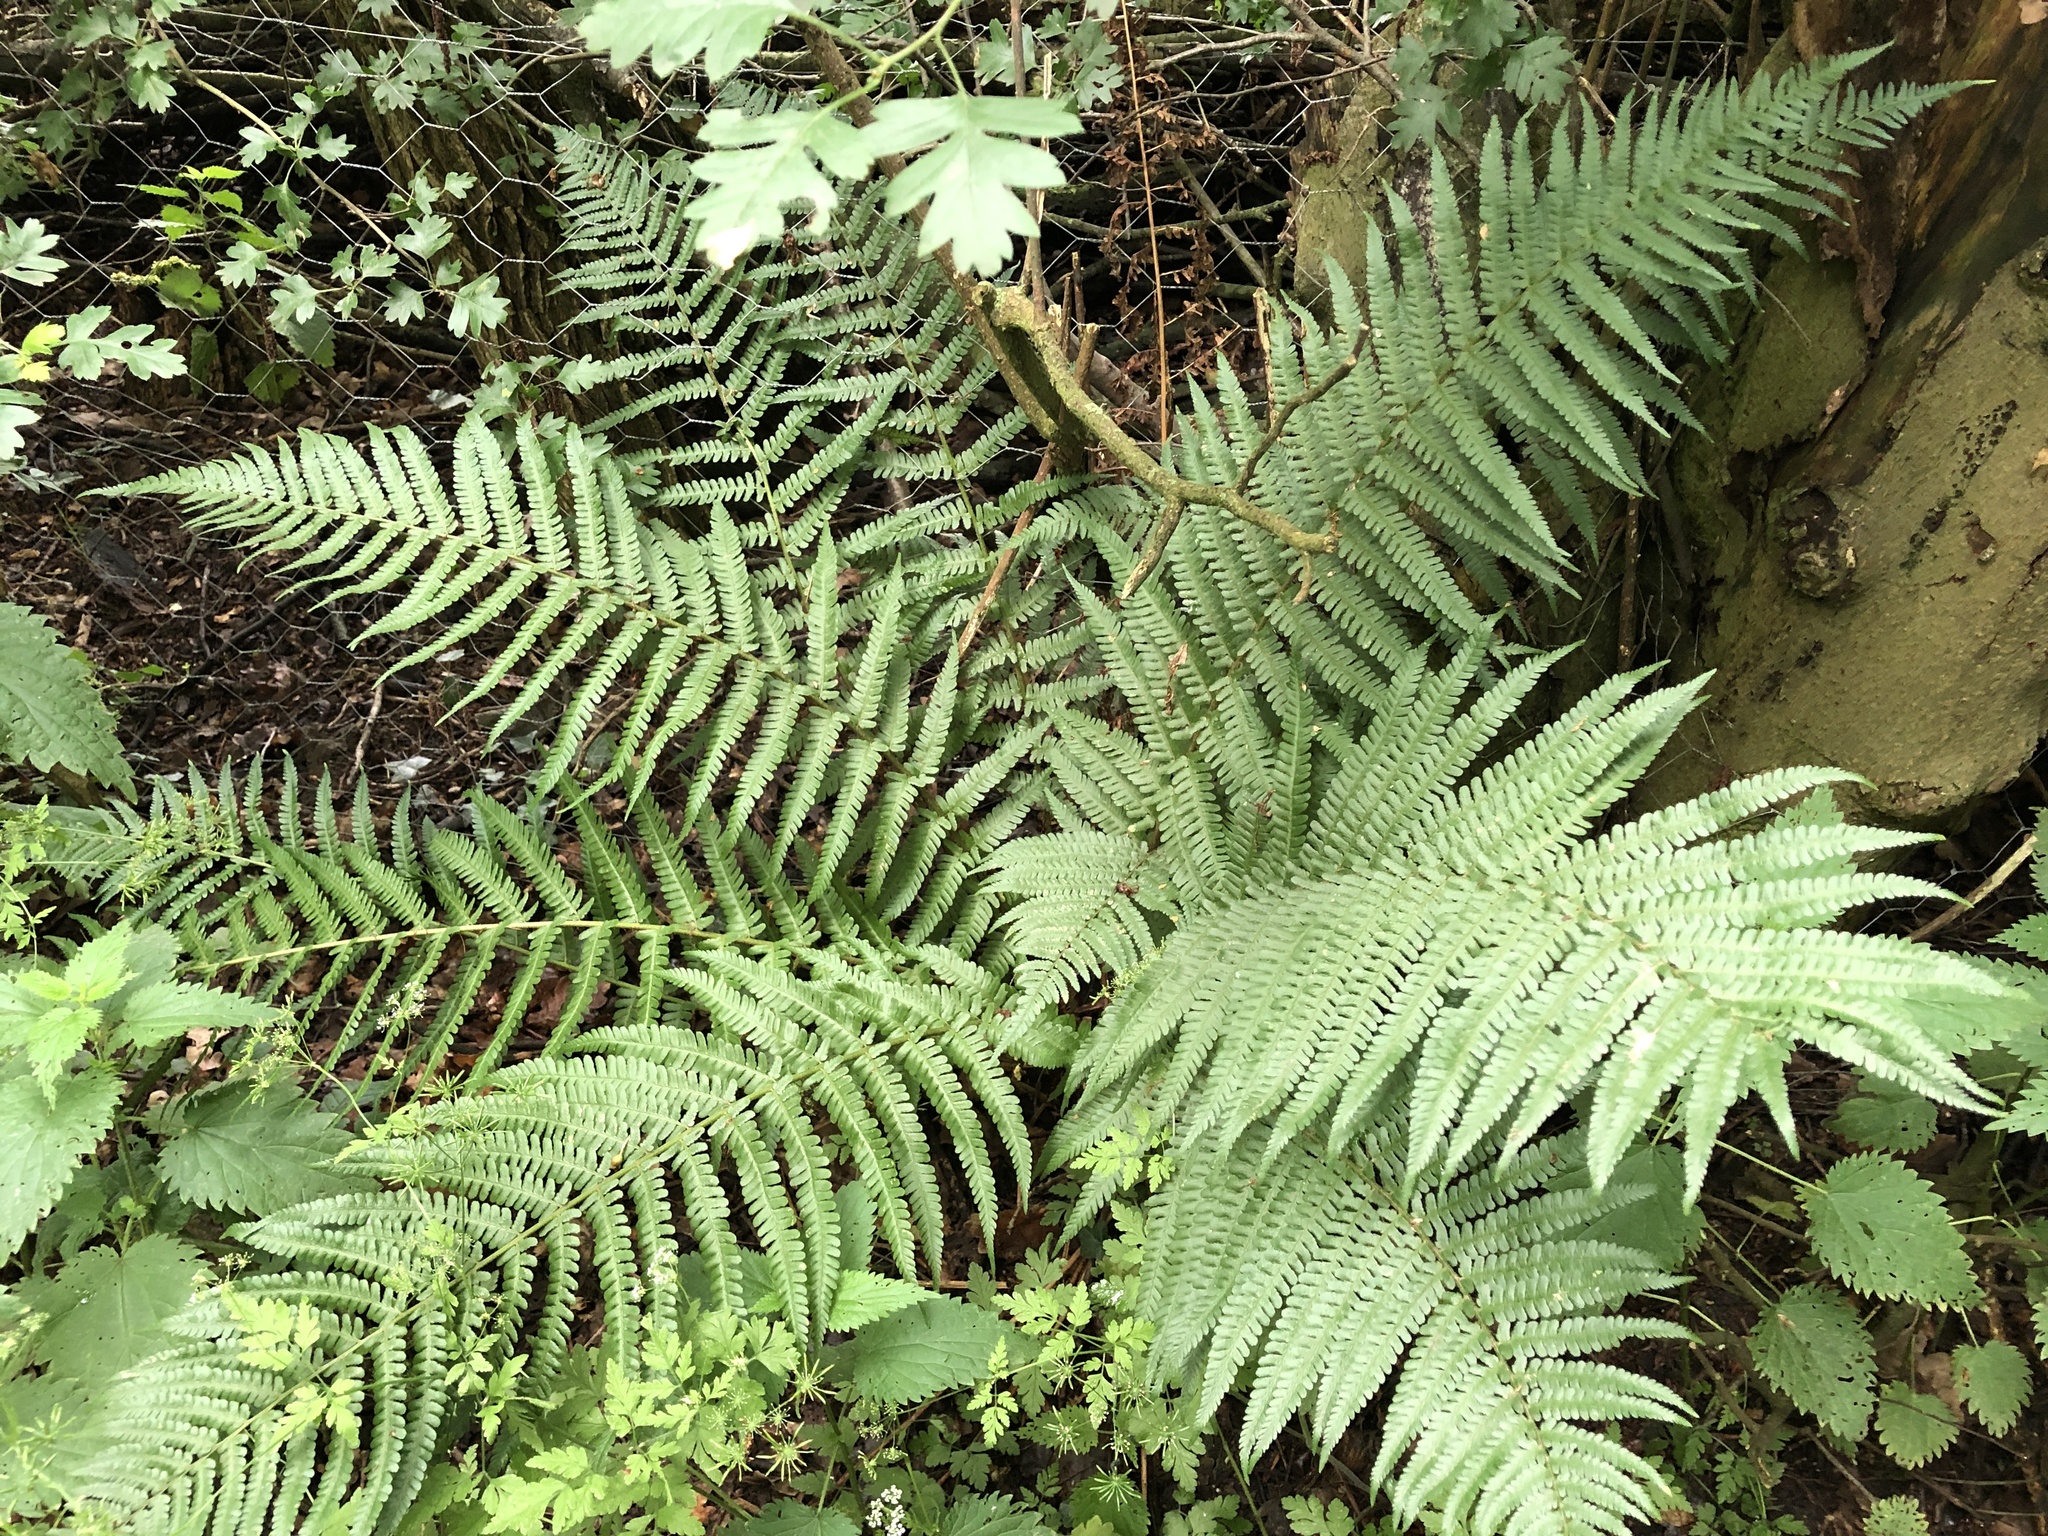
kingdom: Plantae
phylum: Tracheophyta
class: Polypodiopsida
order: Polypodiales
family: Dryopteridaceae
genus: Dryopteris
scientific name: Dryopteris filix-mas
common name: Male fern
